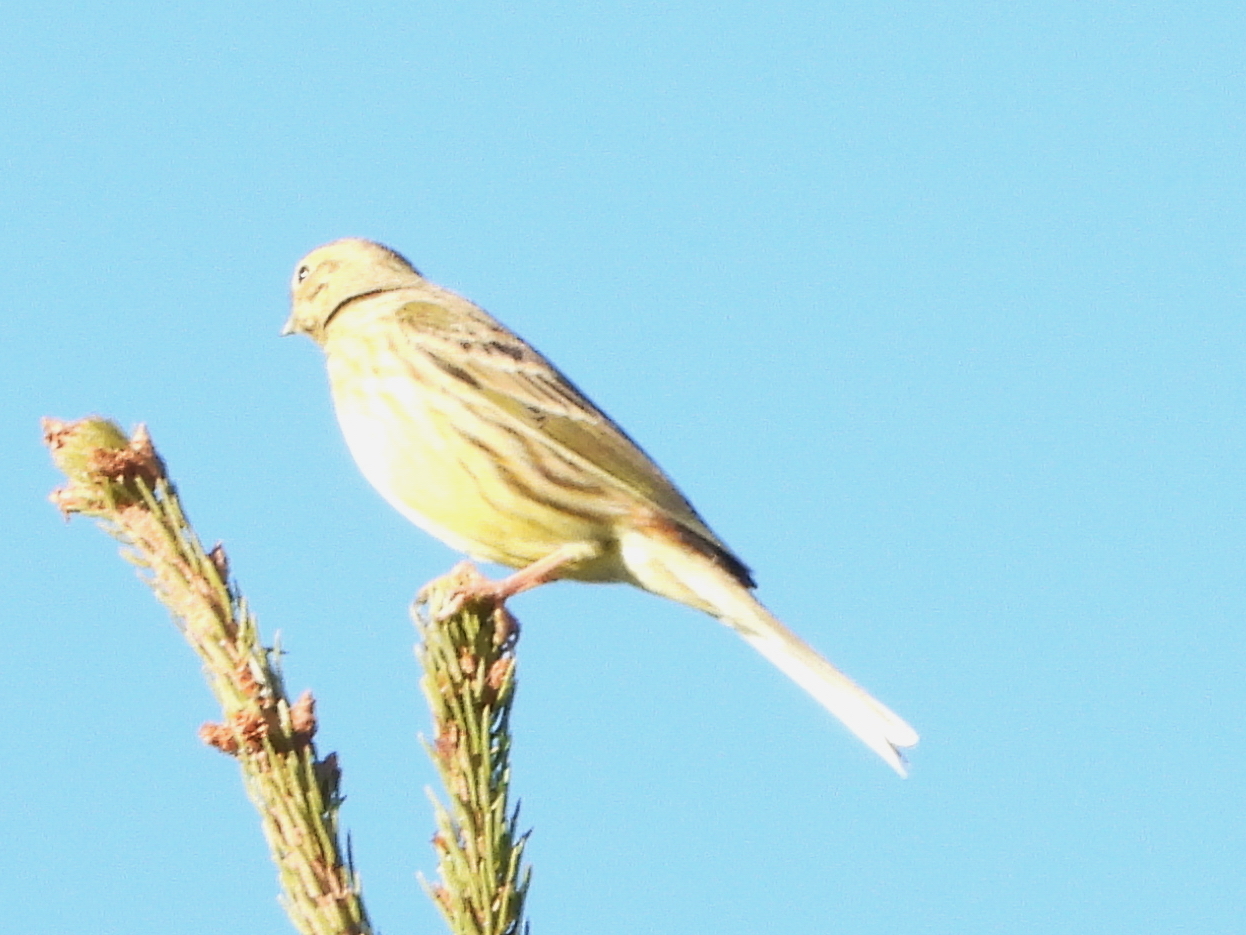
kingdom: Animalia
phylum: Chordata
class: Aves
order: Passeriformes
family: Emberizidae
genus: Emberiza
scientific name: Emberiza citrinella
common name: Yellowhammer
